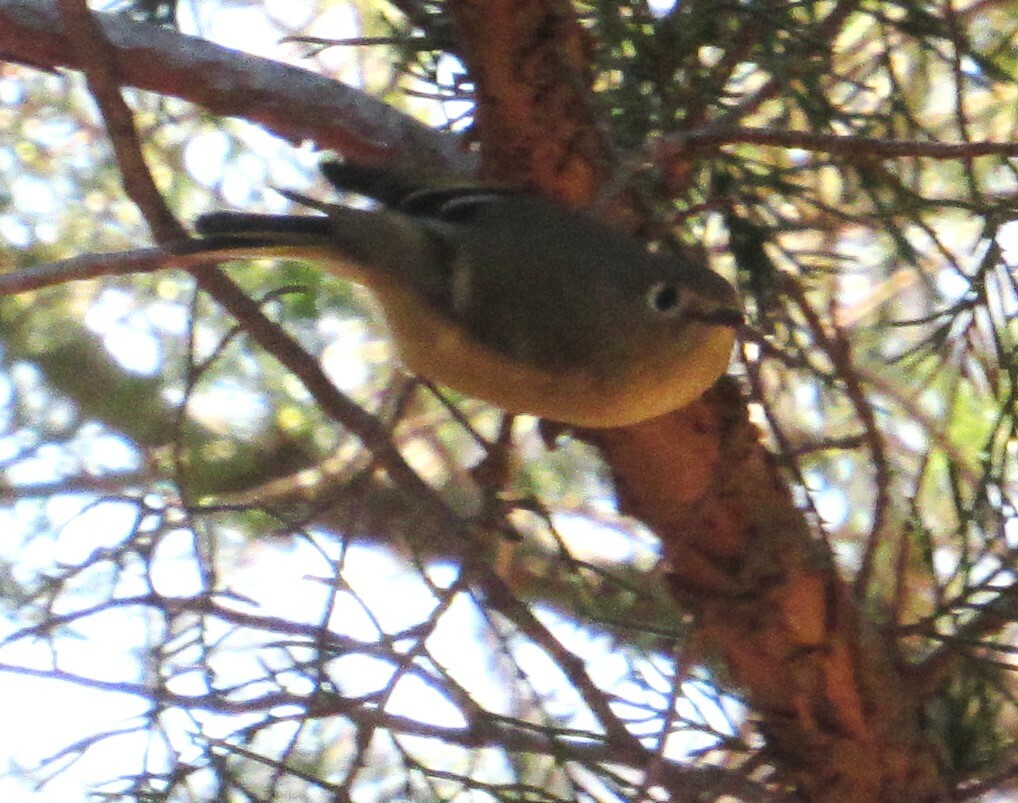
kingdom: Animalia
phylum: Chordata
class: Aves
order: Passeriformes
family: Regulidae
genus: Regulus
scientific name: Regulus calendula
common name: Ruby-crowned kinglet
